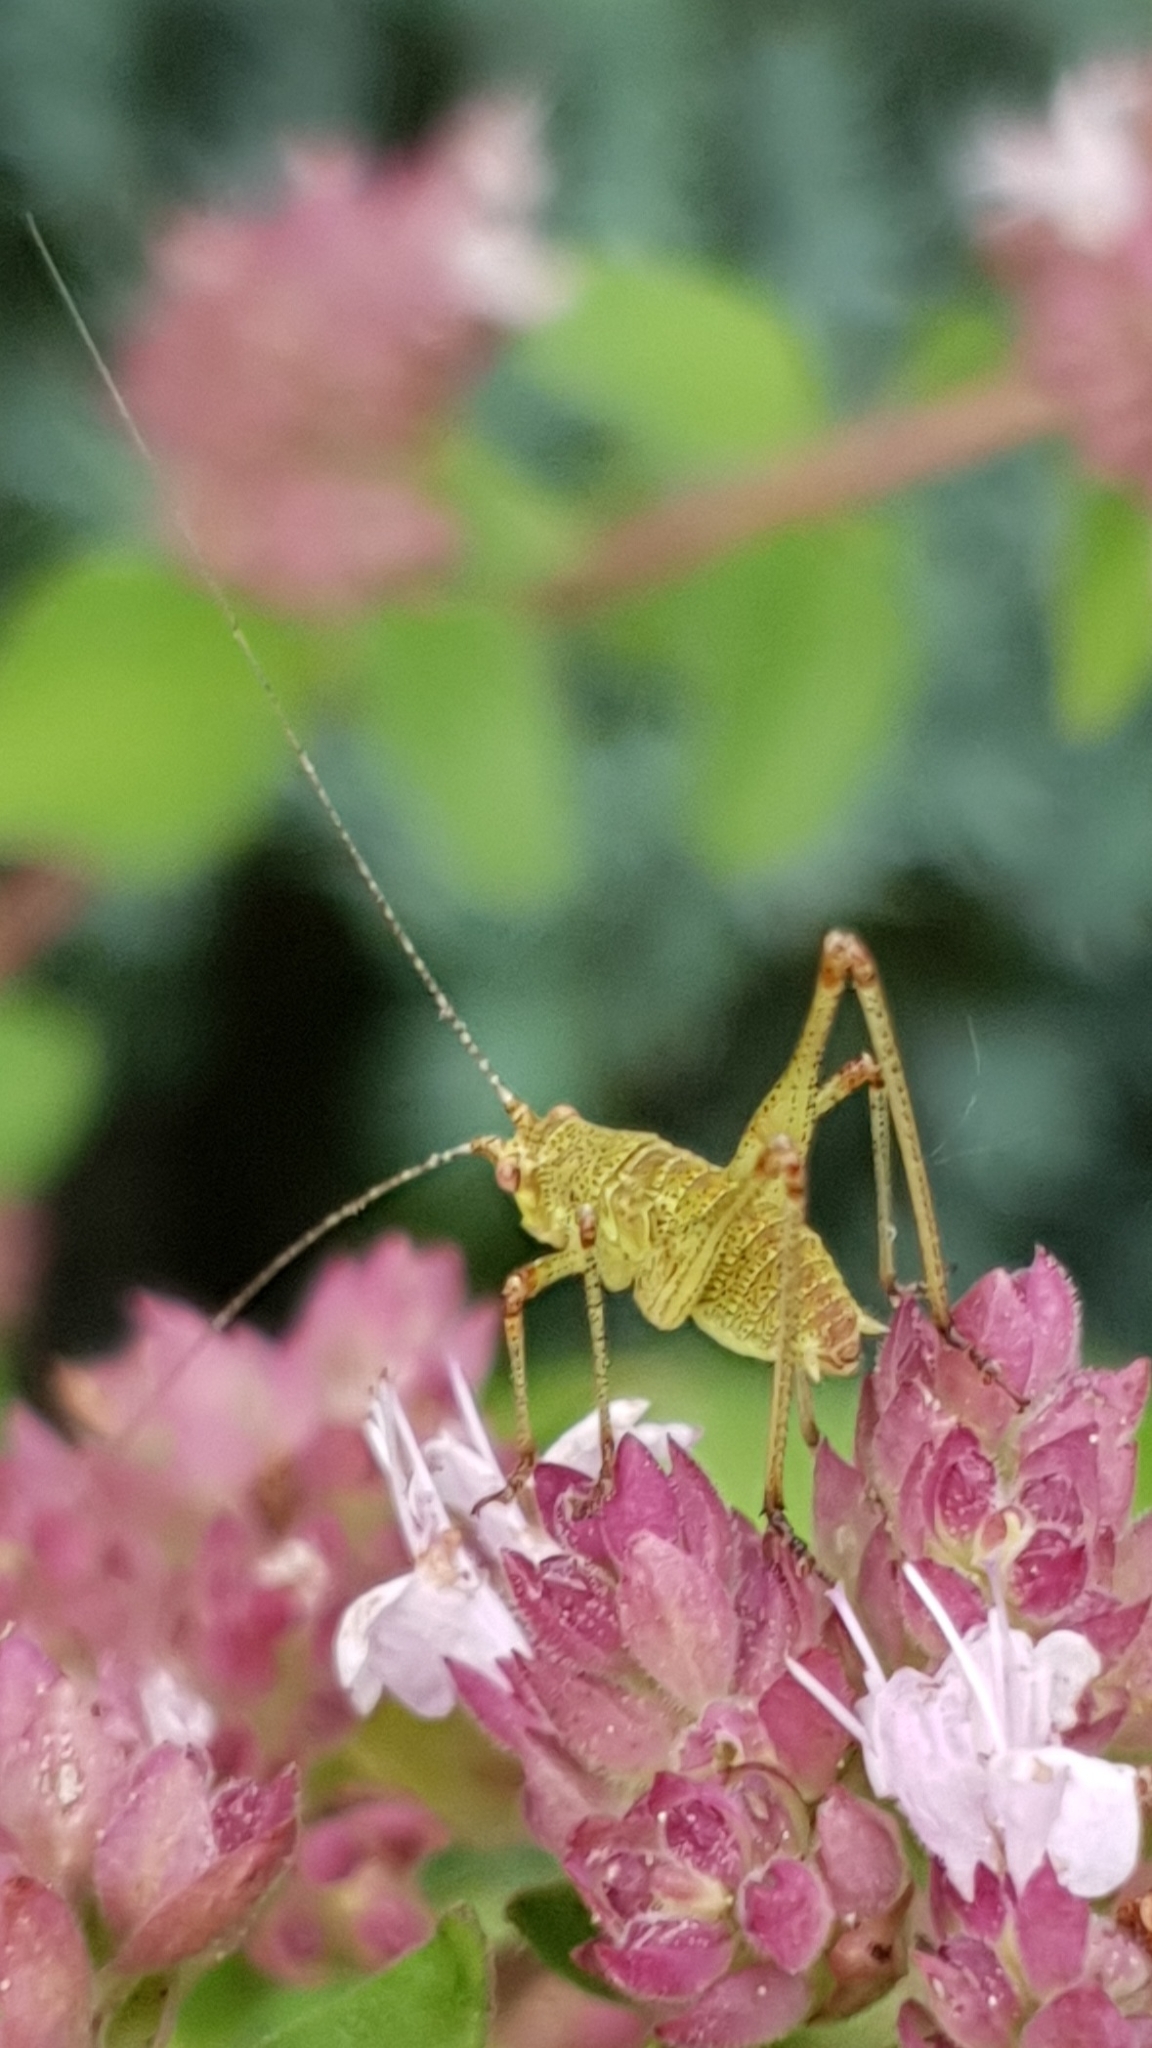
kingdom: Animalia
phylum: Arthropoda
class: Insecta
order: Orthoptera
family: Tettigoniidae
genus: Phaneroptera
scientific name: Phaneroptera nana
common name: Southern sickle bush-cricket
